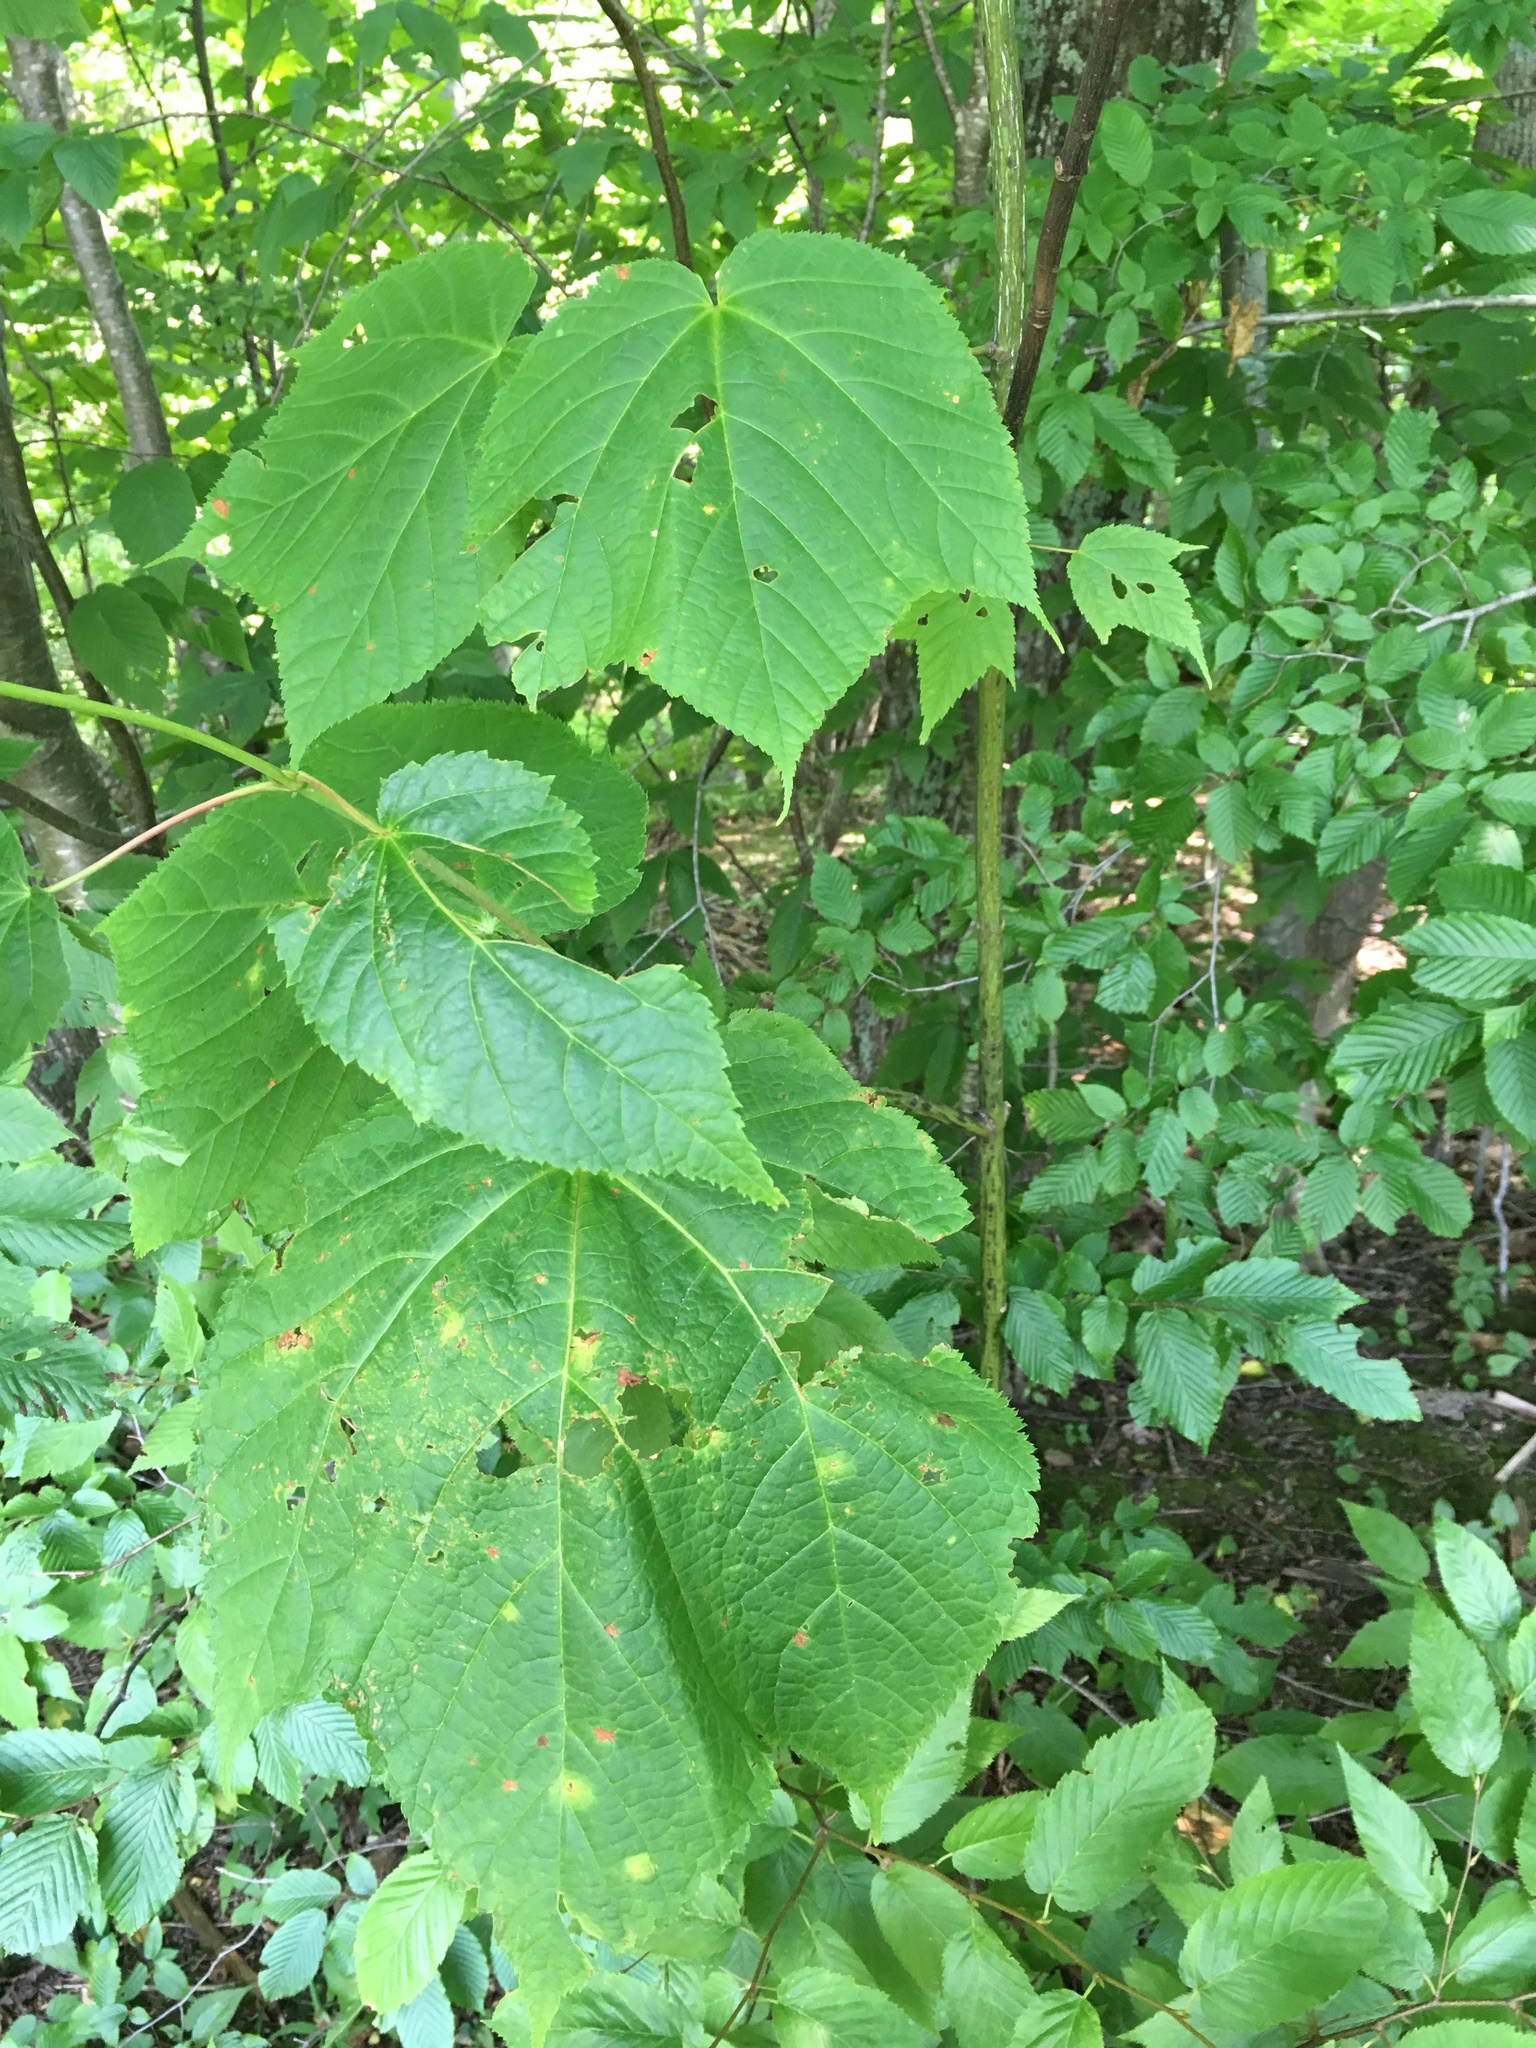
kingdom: Plantae
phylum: Tracheophyta
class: Magnoliopsida
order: Sapindales
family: Sapindaceae
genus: Acer
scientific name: Acer pensylvanicum
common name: Moosewood
